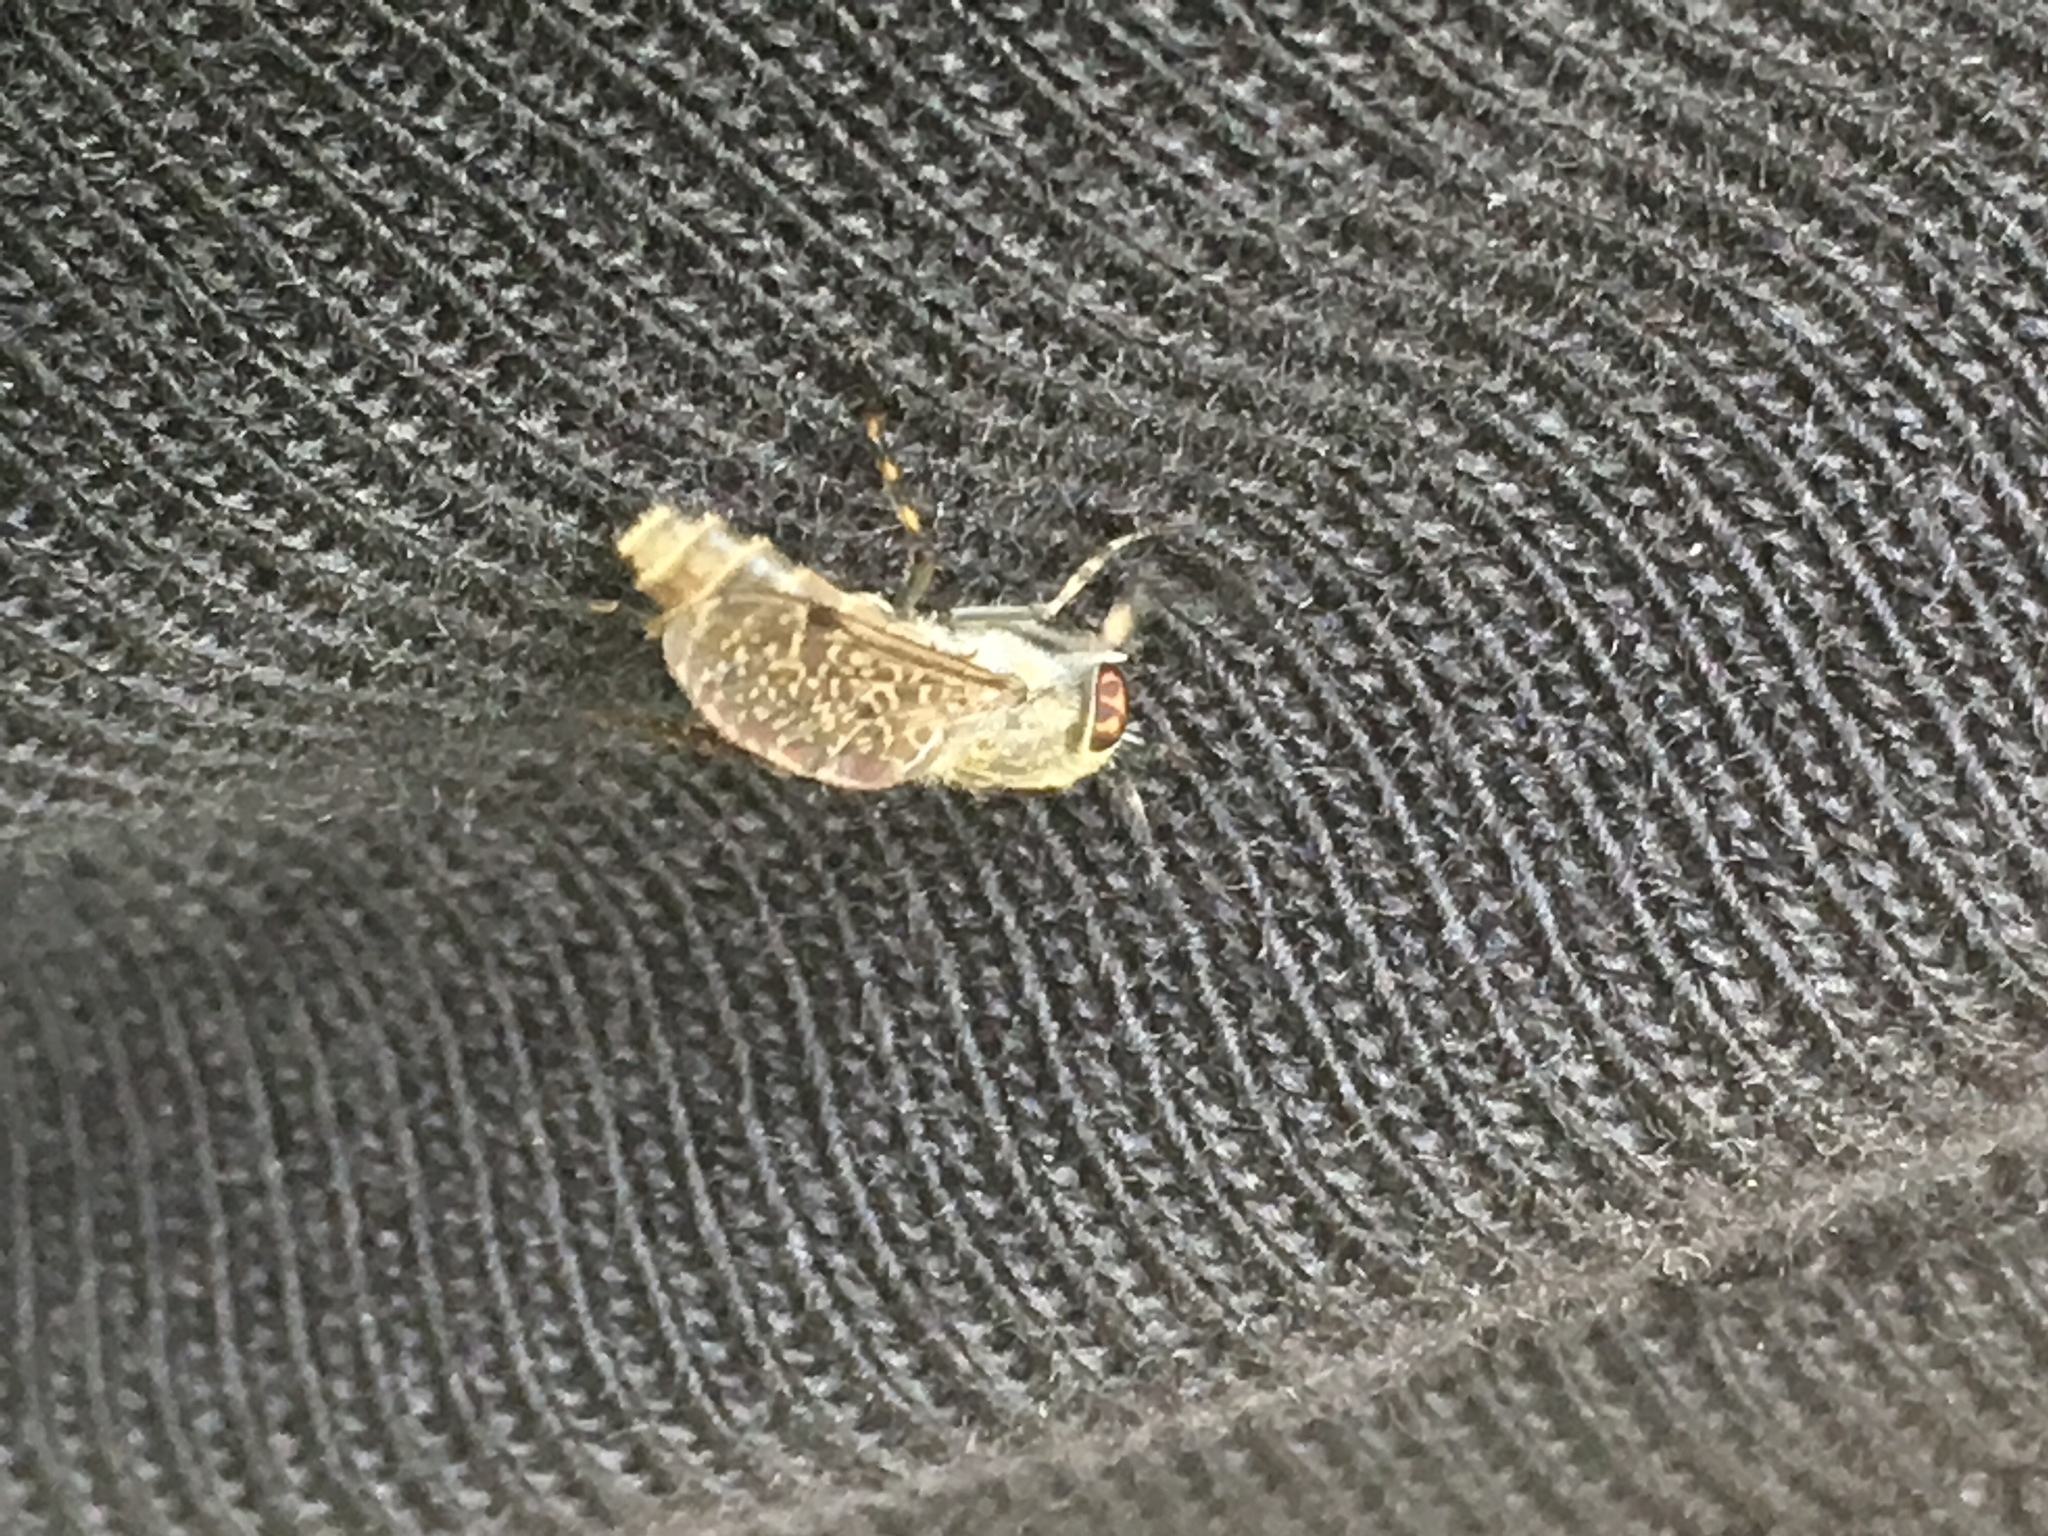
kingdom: Animalia
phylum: Arthropoda
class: Insecta
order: Diptera
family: Tabanidae
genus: Haematopota
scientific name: Haematopota pluvialis
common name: Common horse fly
